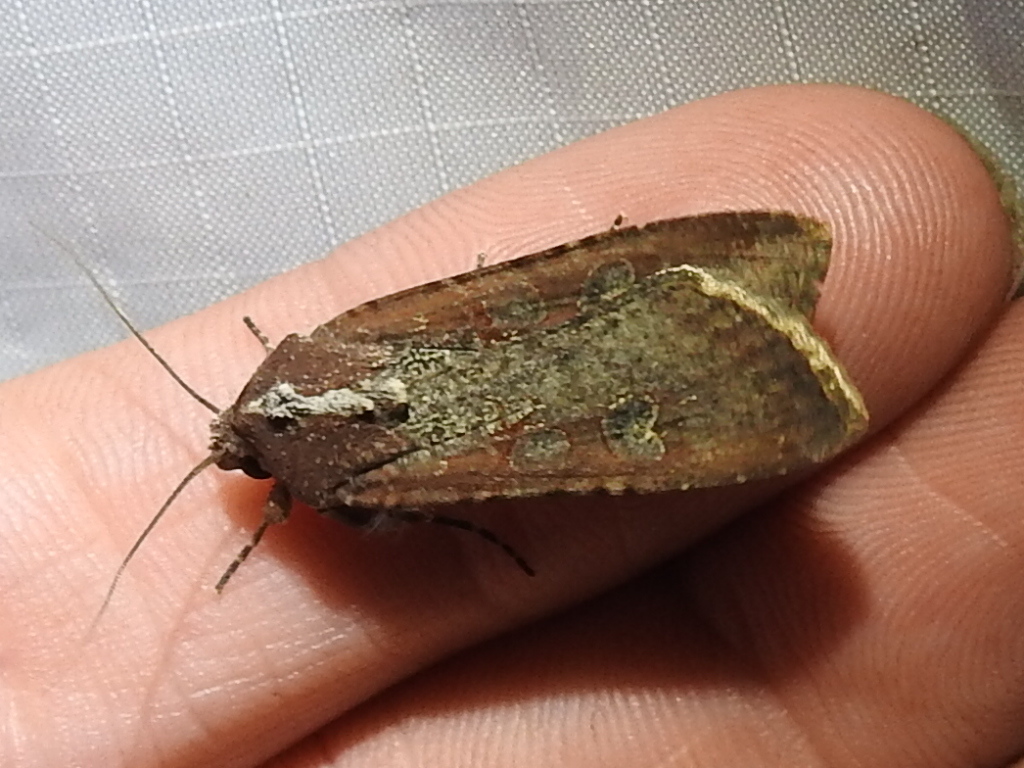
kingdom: Animalia
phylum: Arthropoda
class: Insecta
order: Lepidoptera
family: Noctuidae
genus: Peridroma
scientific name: Peridroma saucia
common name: Pearly underwing
